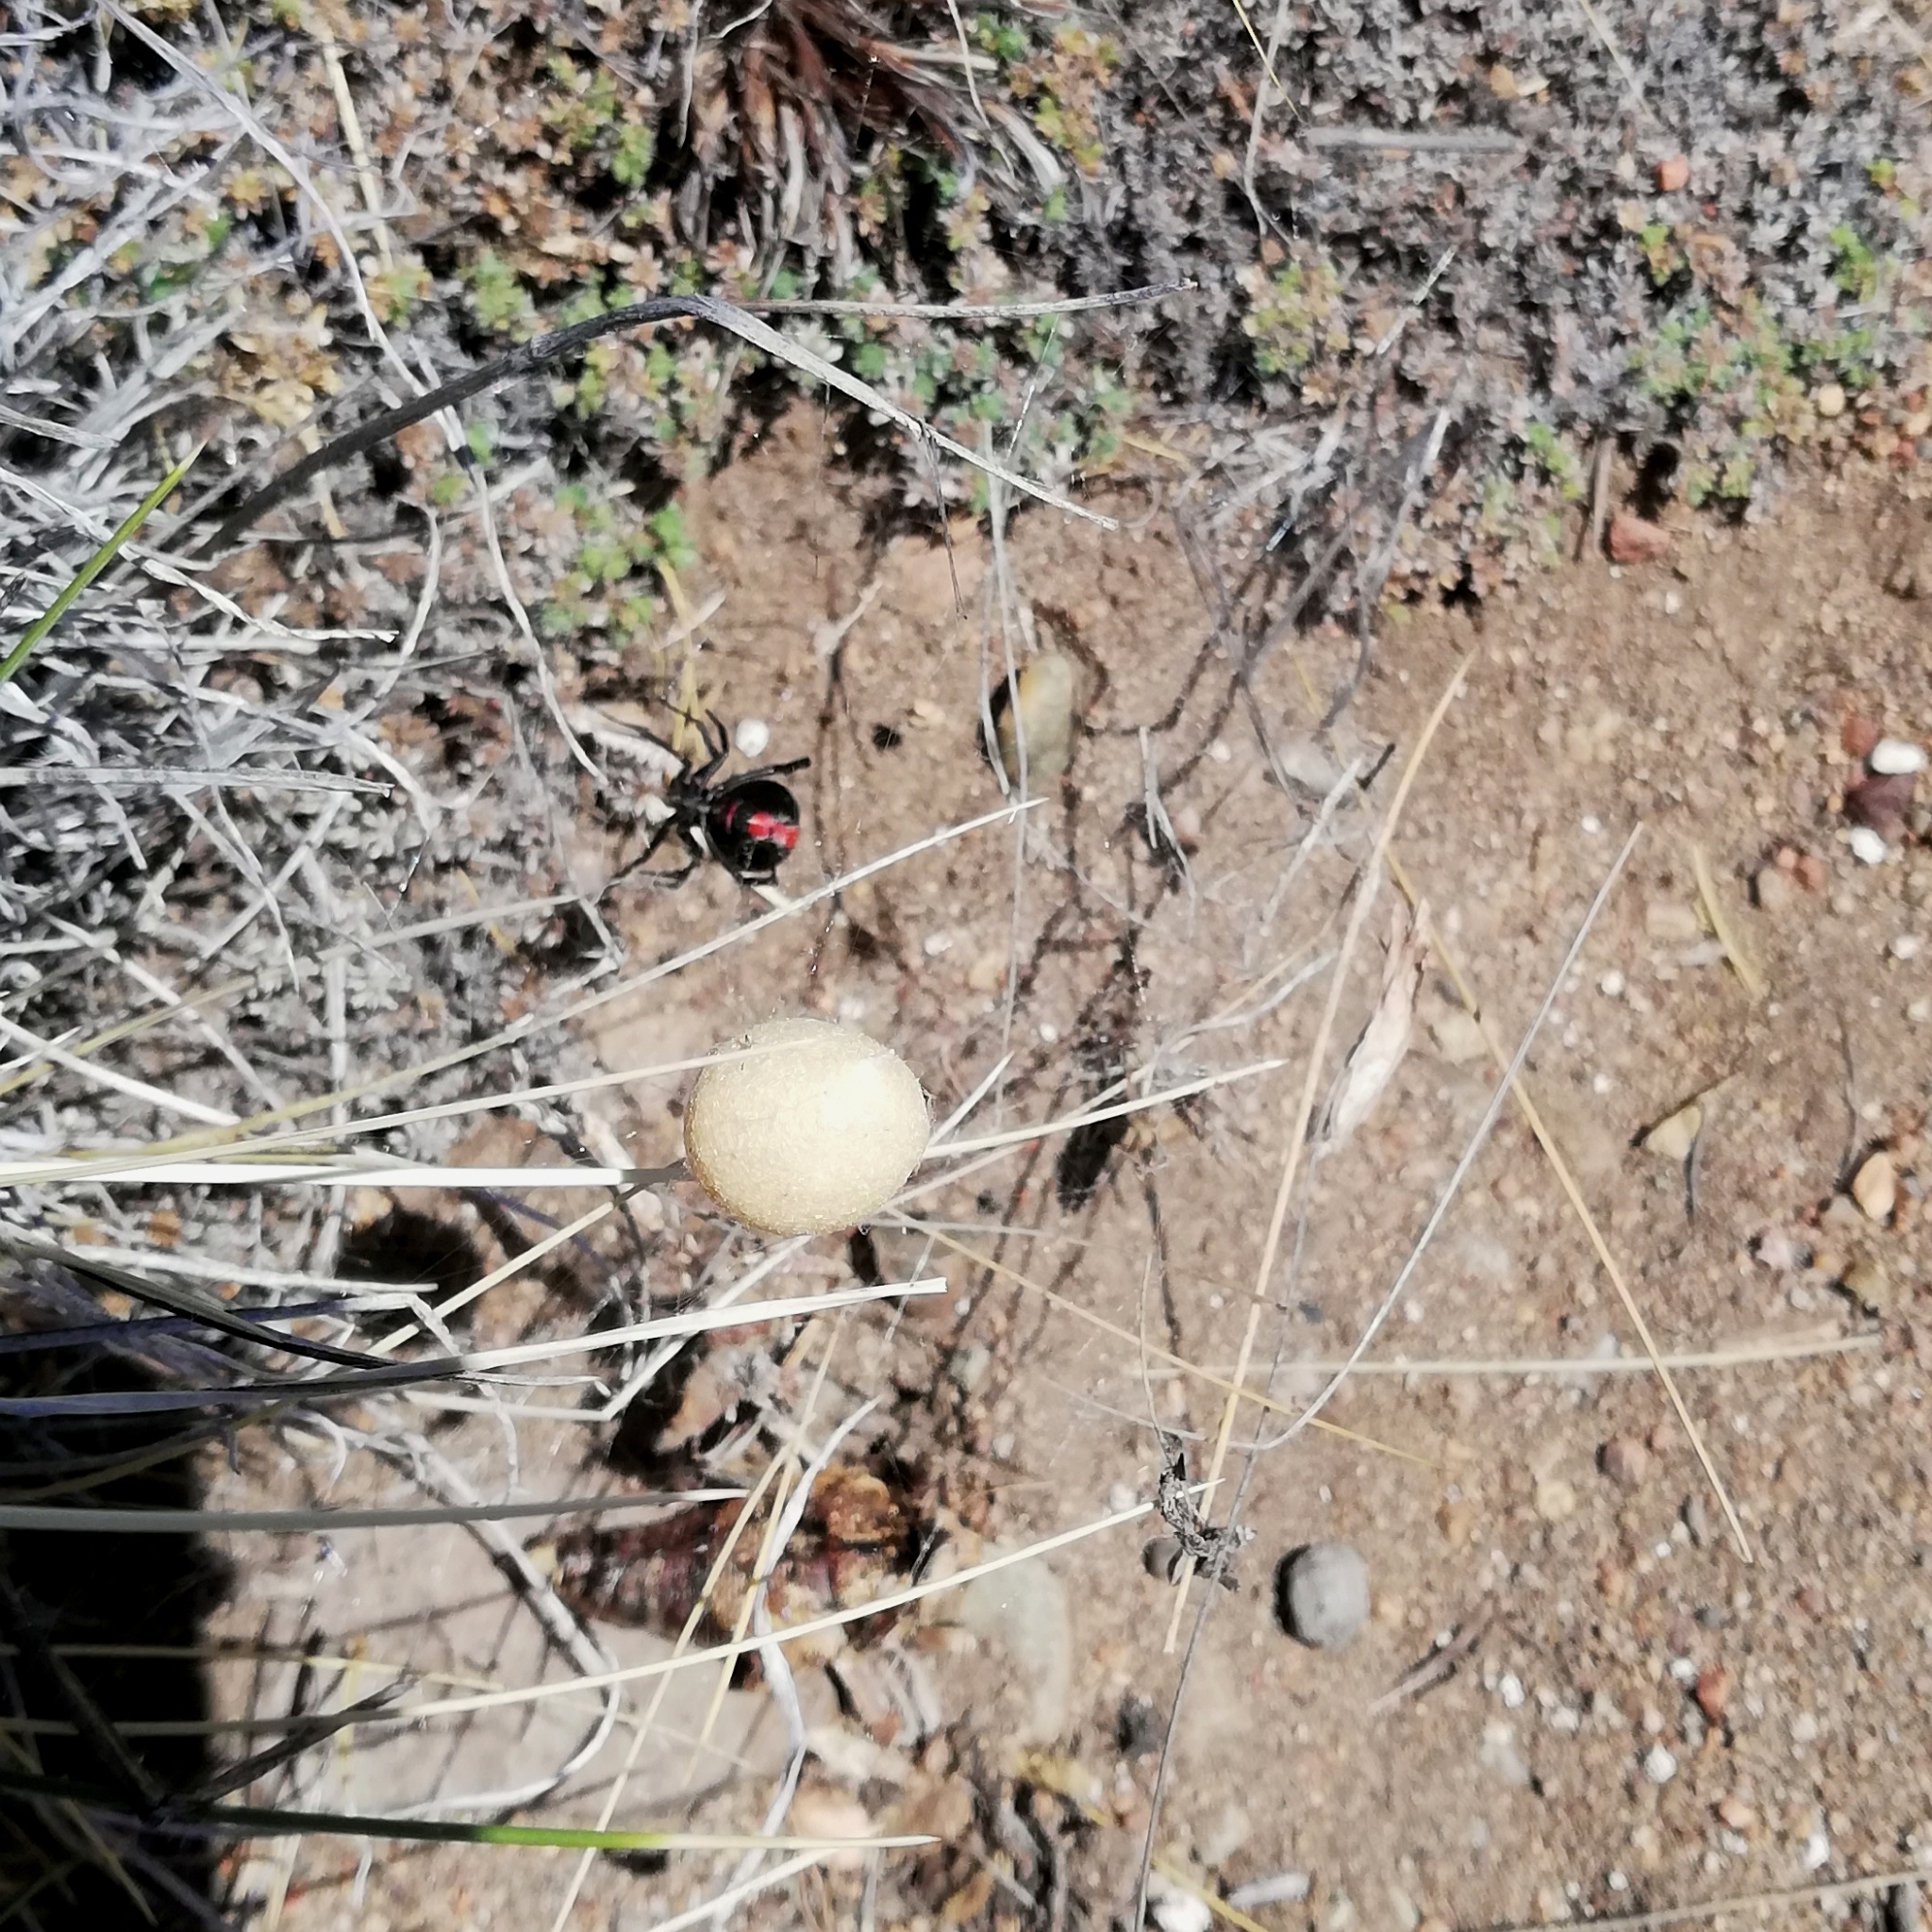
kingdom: Animalia
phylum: Arthropoda
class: Arachnida
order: Araneae
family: Theridiidae
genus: Latrodectus
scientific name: Latrodectus mirabilis
